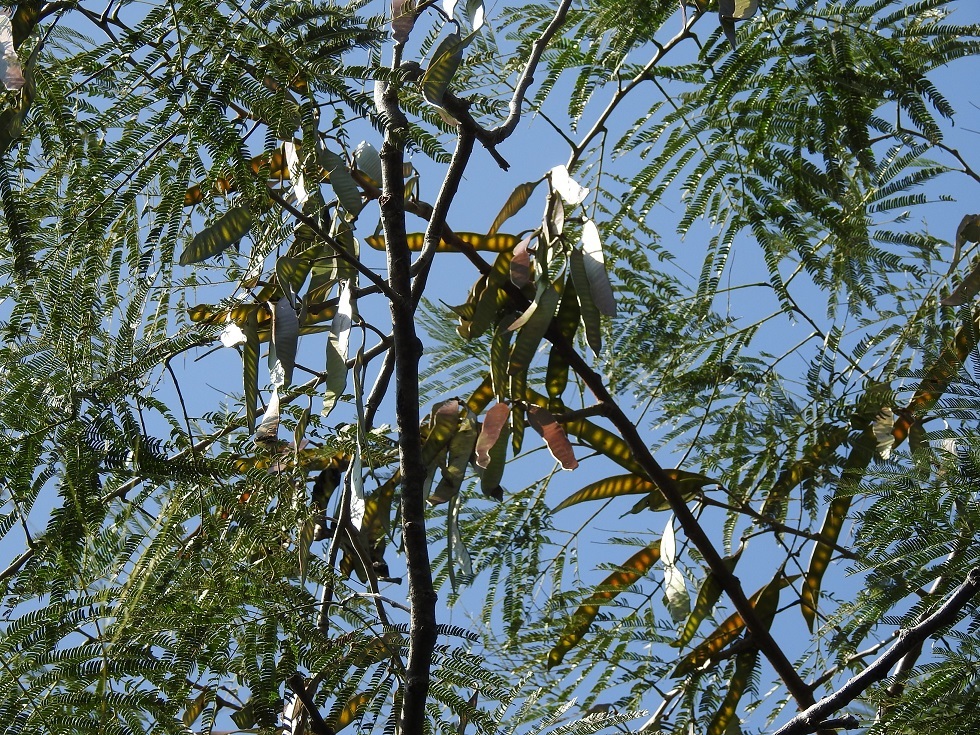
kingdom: Plantae
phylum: Tracheophyta
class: Magnoliopsida
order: Fabales
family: Fabaceae
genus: Leucaena
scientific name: Leucaena diversifolia
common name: Red leucaena
